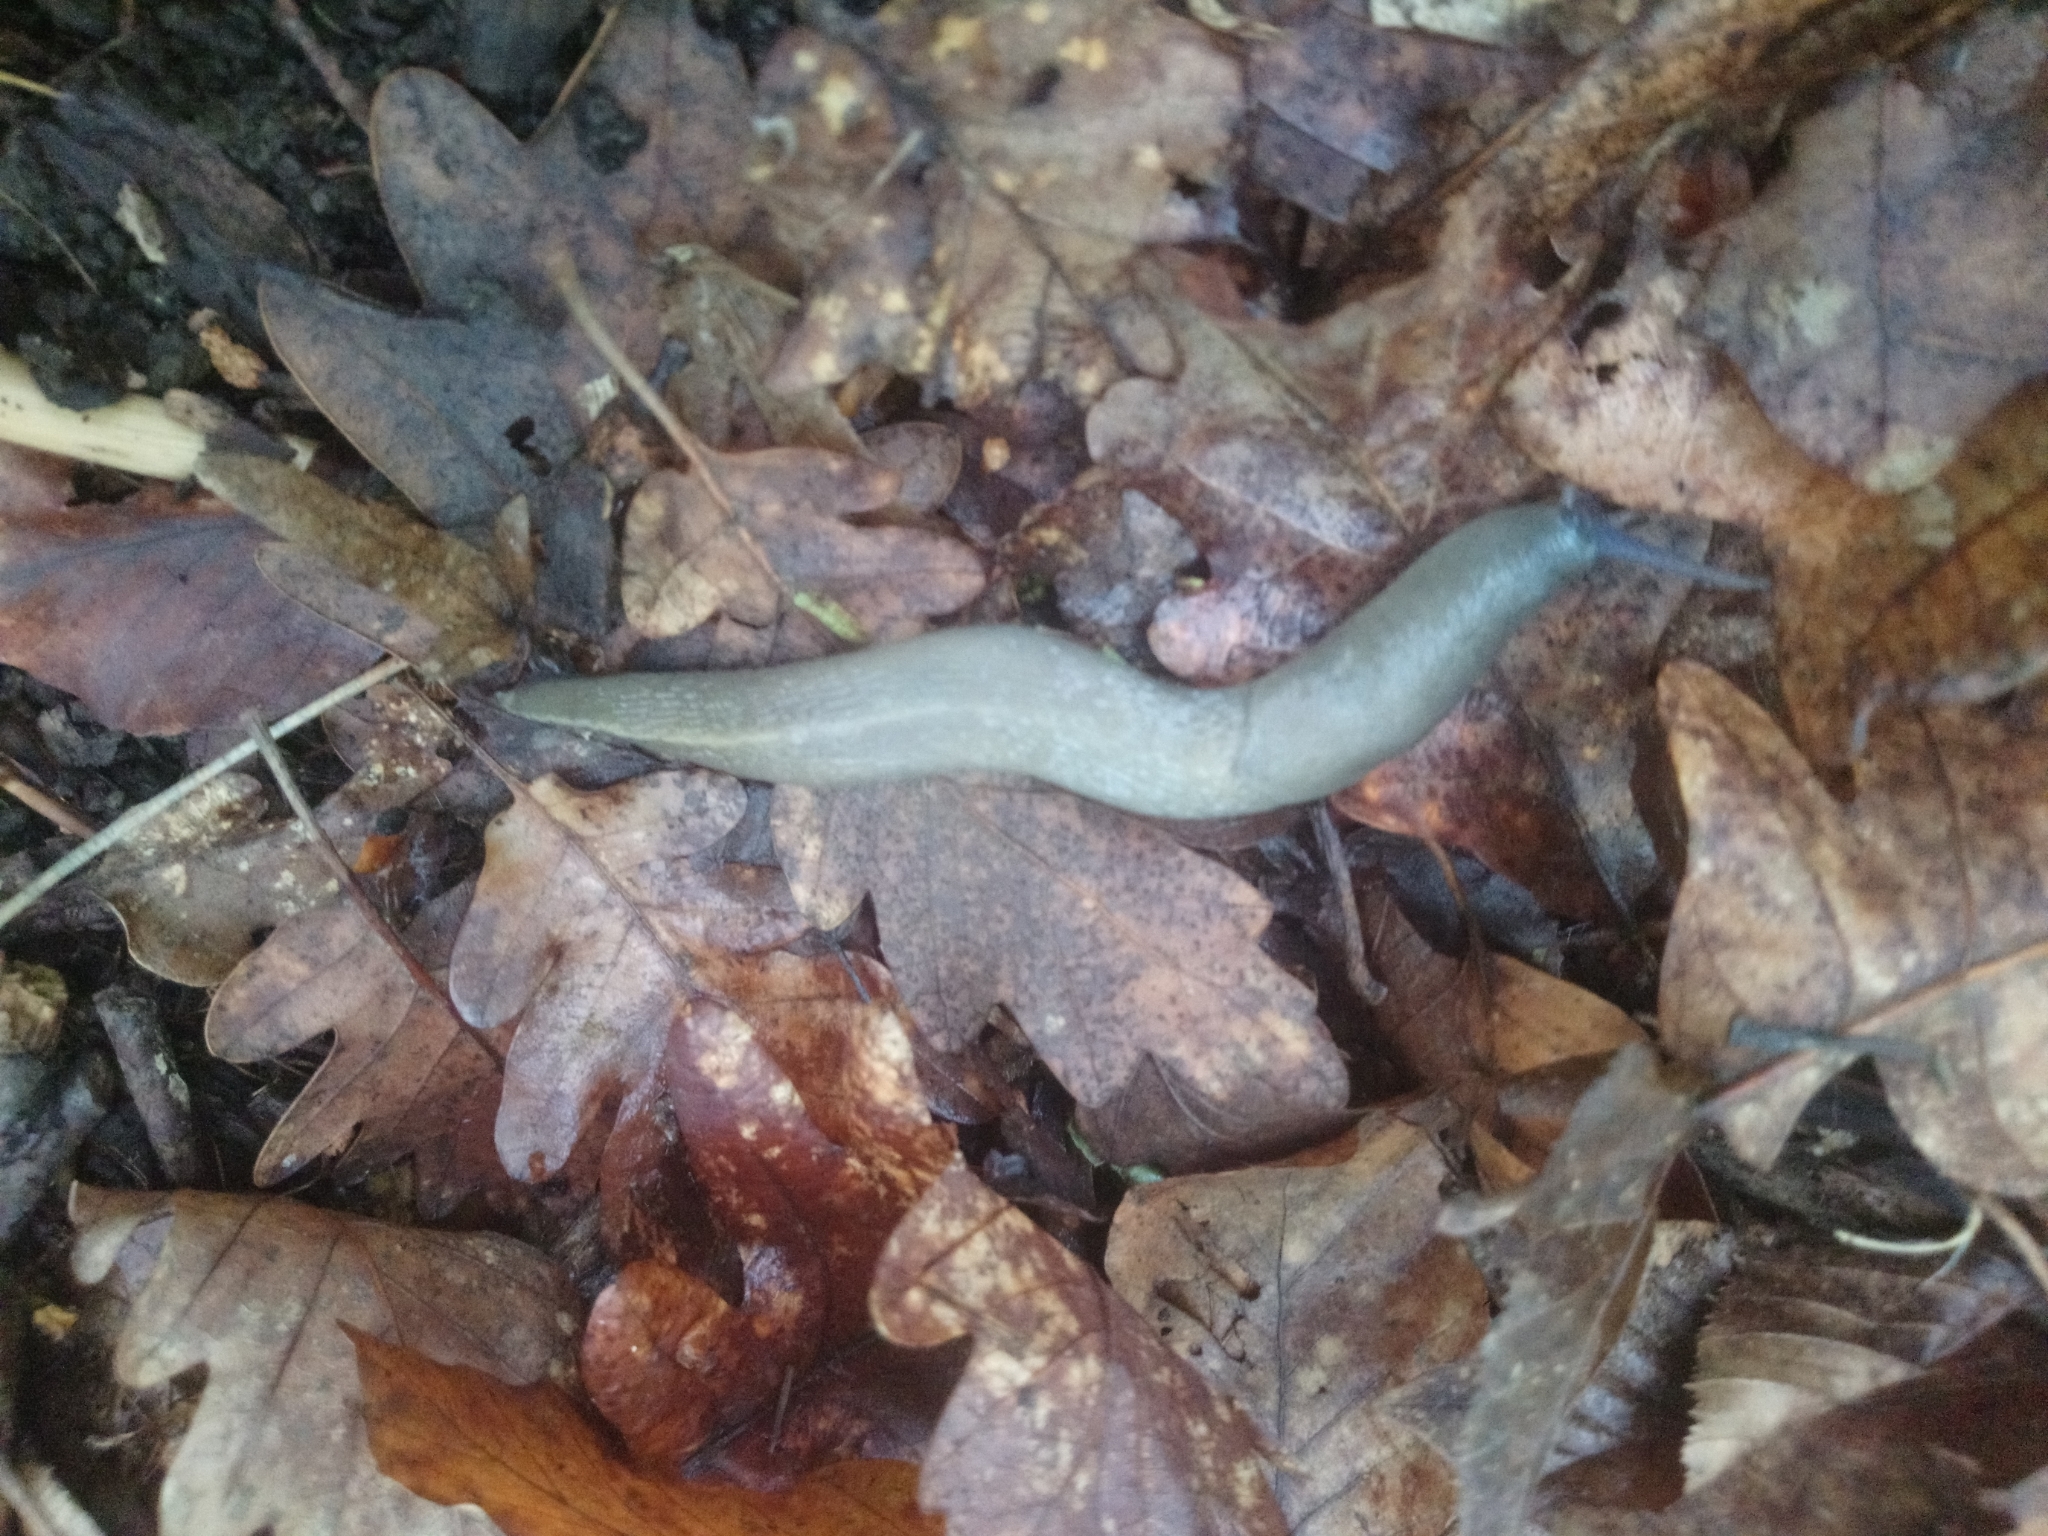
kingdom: Animalia
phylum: Mollusca
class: Gastropoda
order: Stylommatophora
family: Limacidae
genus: Limax
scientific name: Limax cinereoniger
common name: Ash-black slug
